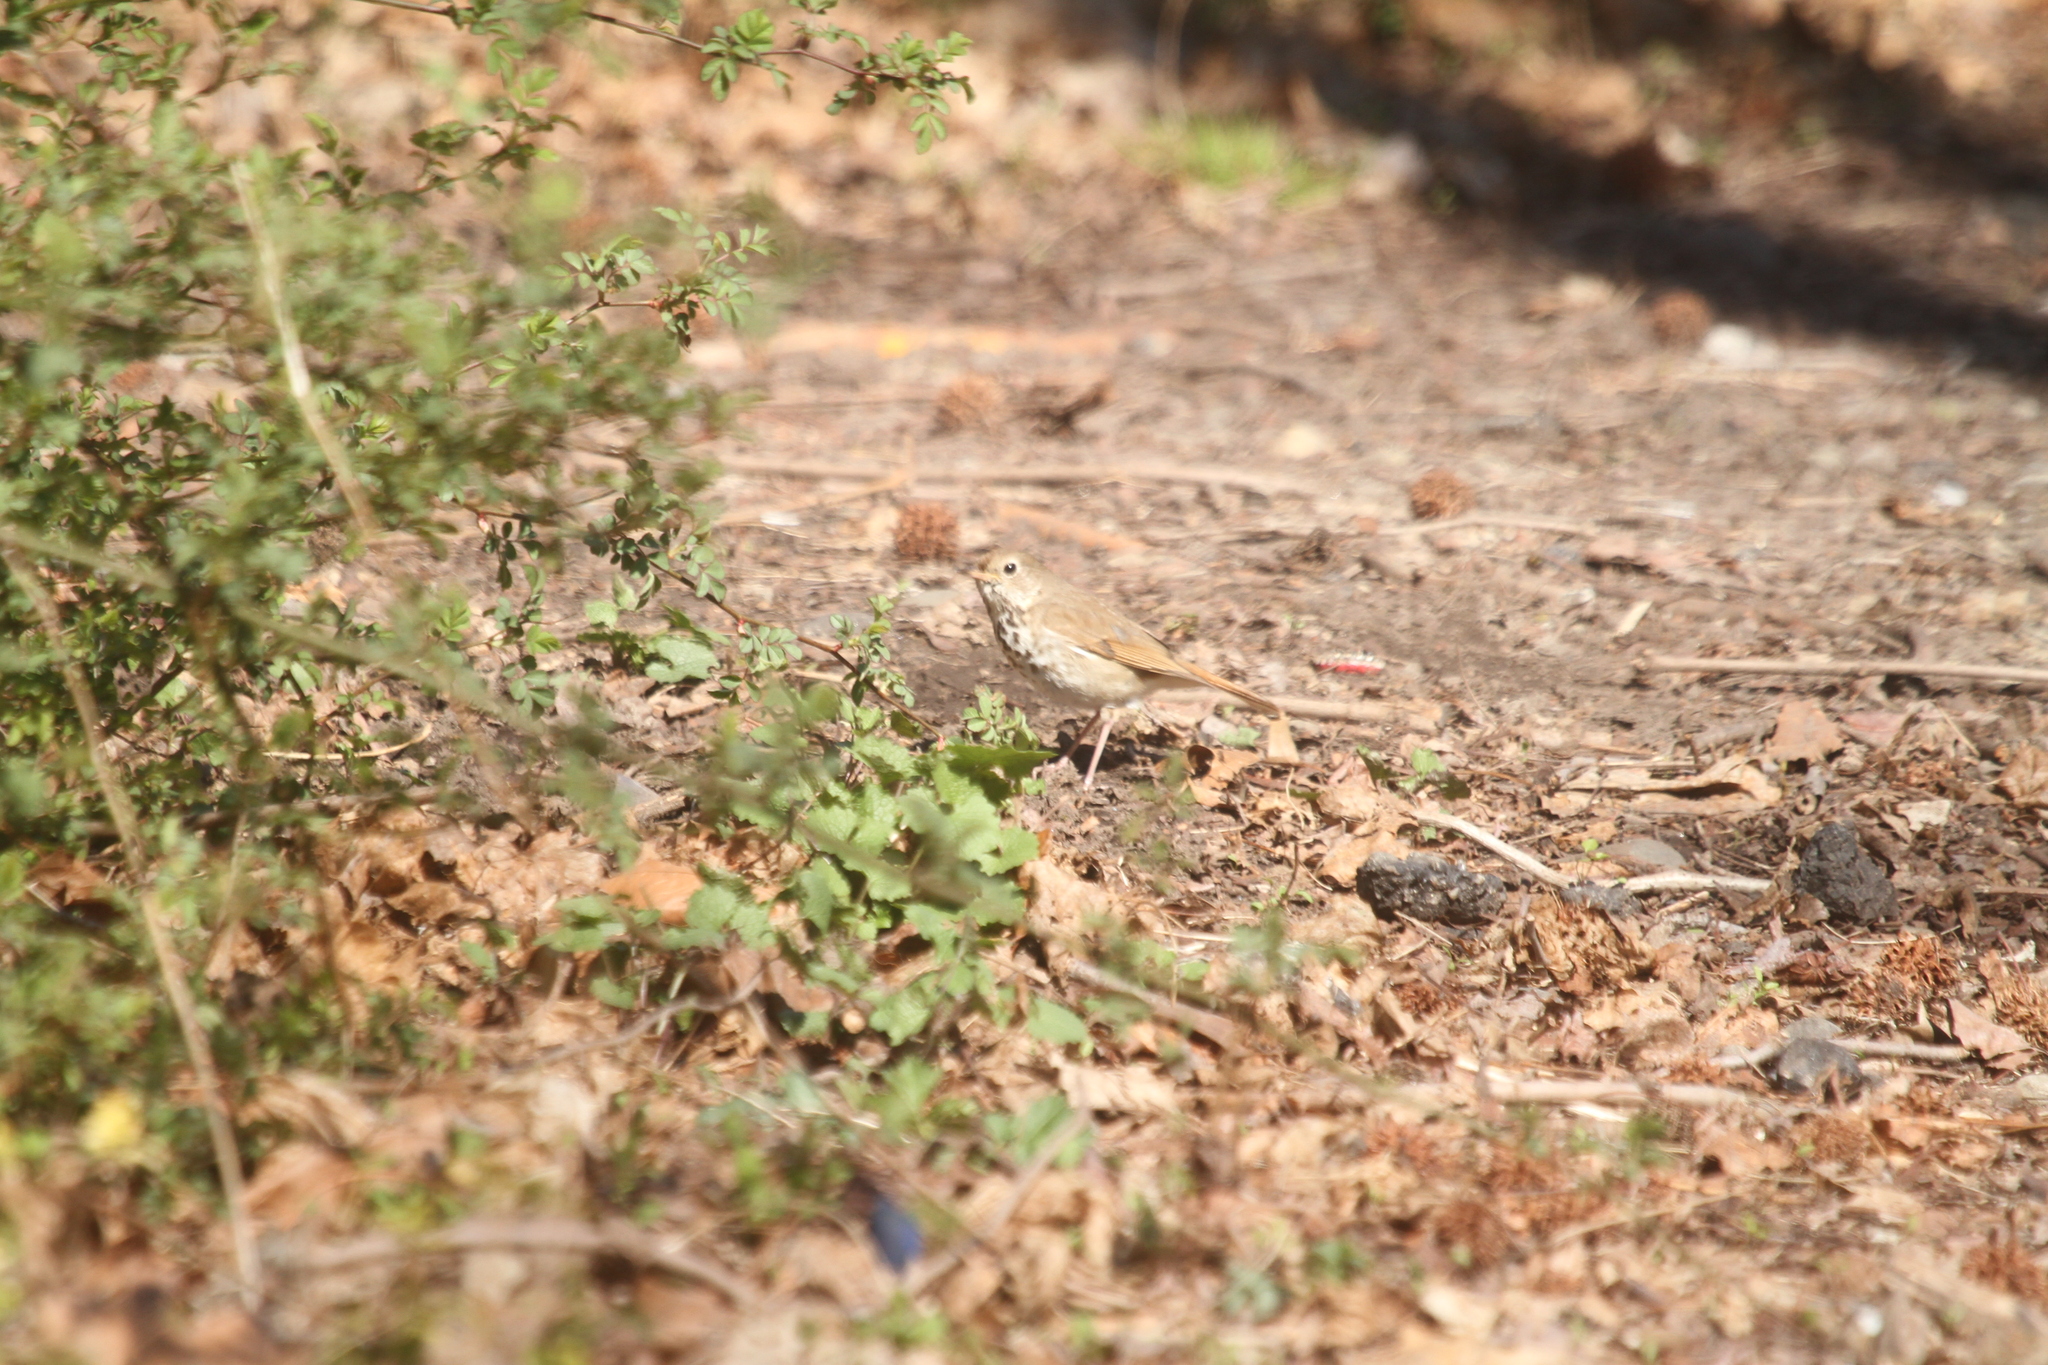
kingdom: Animalia
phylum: Chordata
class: Aves
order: Passeriformes
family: Turdidae
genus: Catharus
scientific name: Catharus guttatus
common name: Hermit thrush
